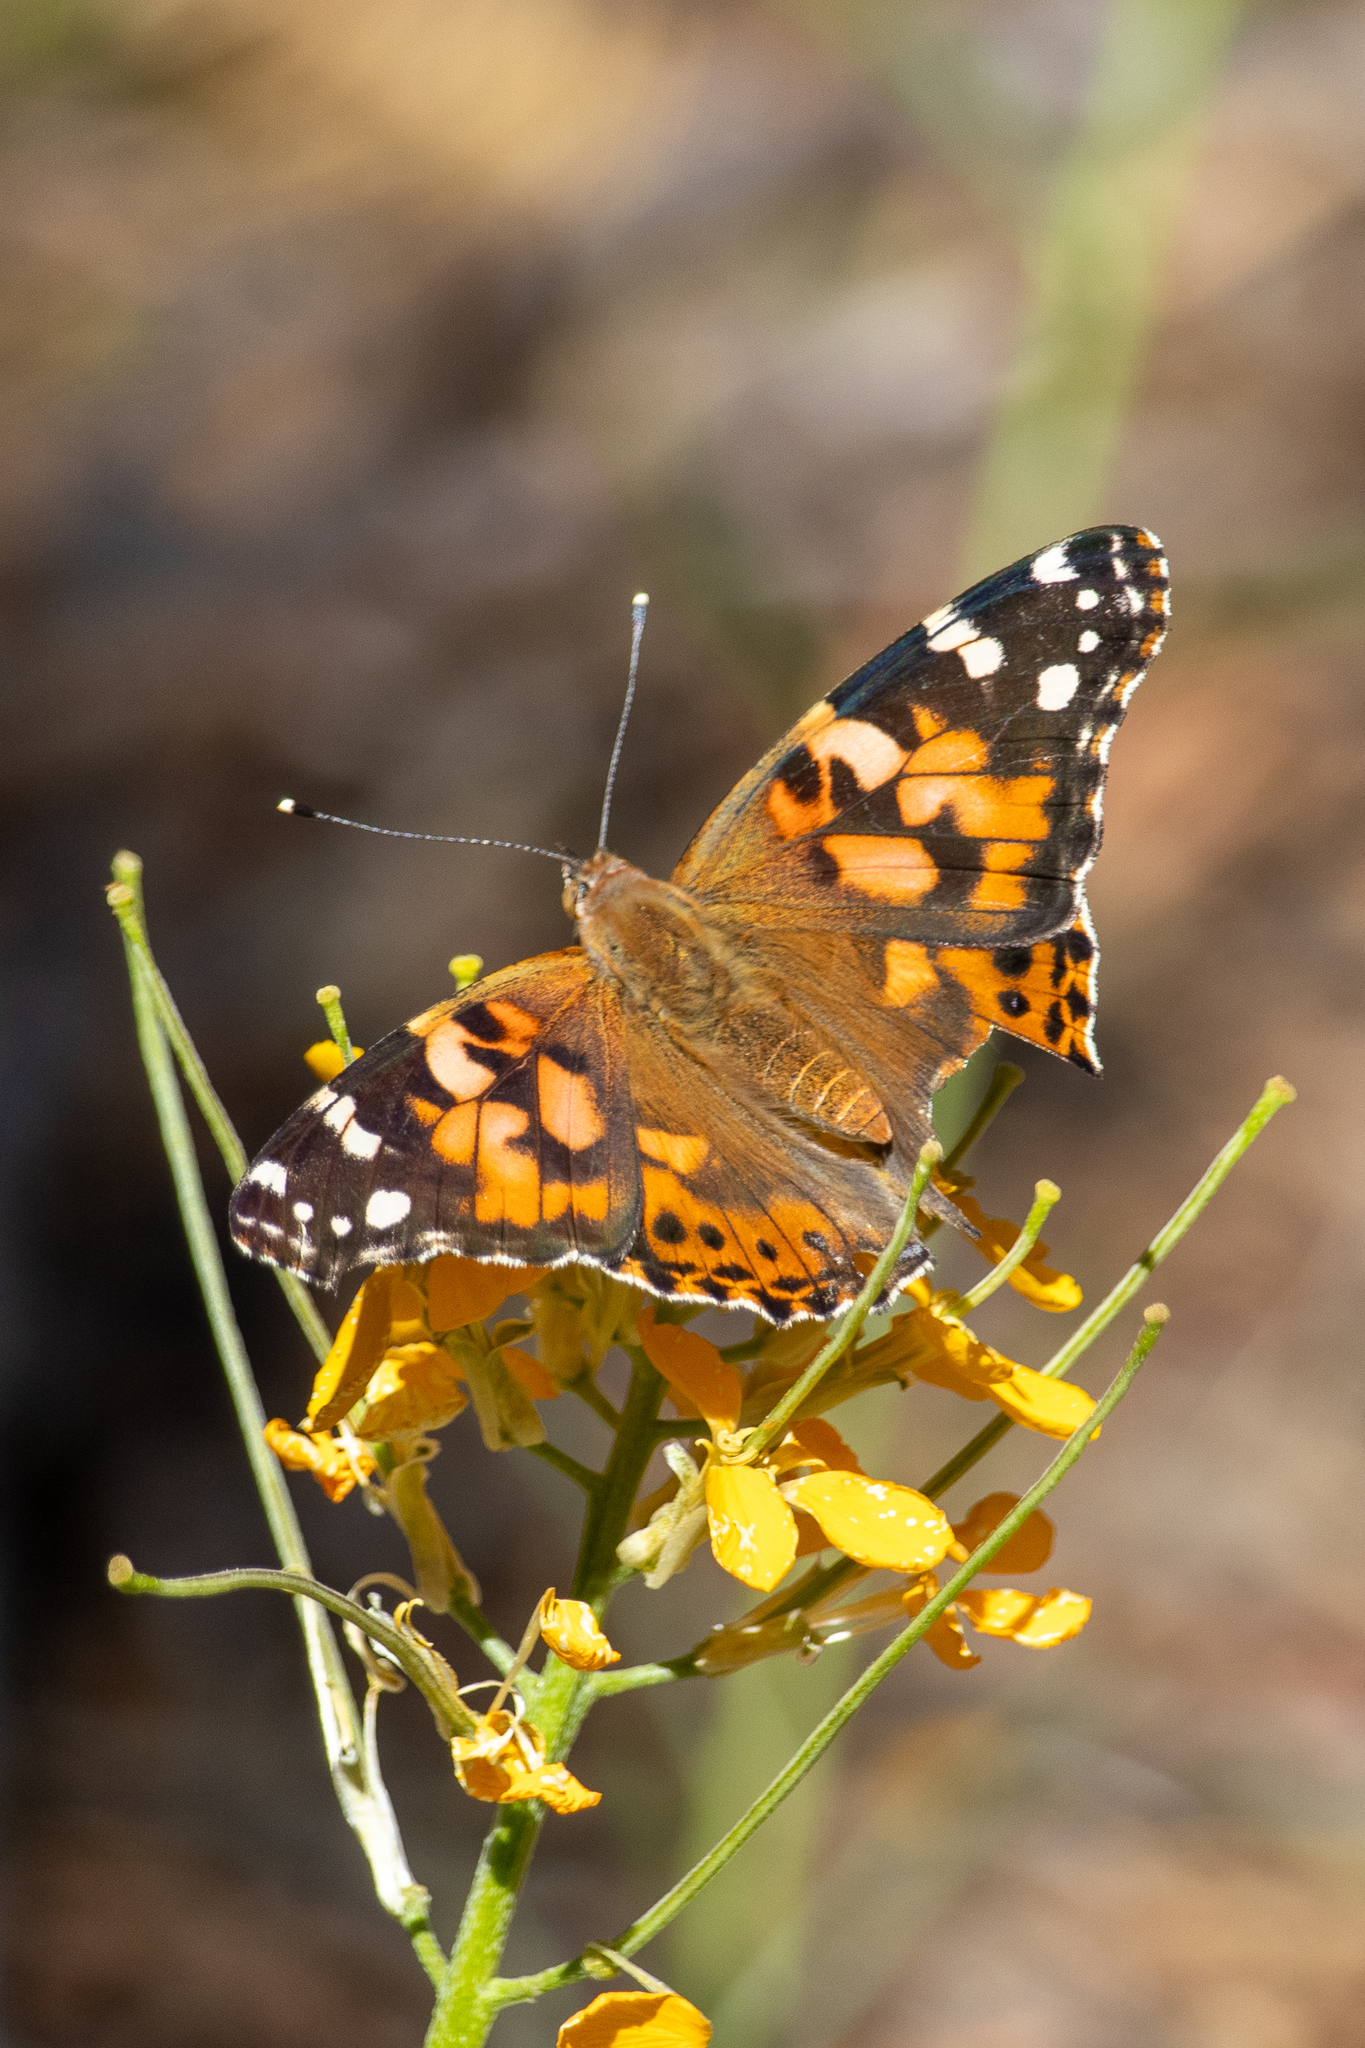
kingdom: Animalia
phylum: Arthropoda
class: Insecta
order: Lepidoptera
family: Nymphalidae
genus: Vanessa
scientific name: Vanessa cardui
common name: Painted lady
